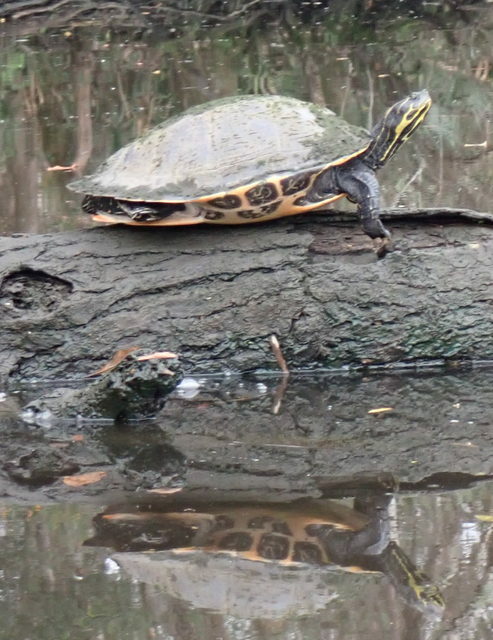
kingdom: Animalia
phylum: Chordata
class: Testudines
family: Emydidae
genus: Pseudemys
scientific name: Pseudemys concinna
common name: Eastern river cooter
